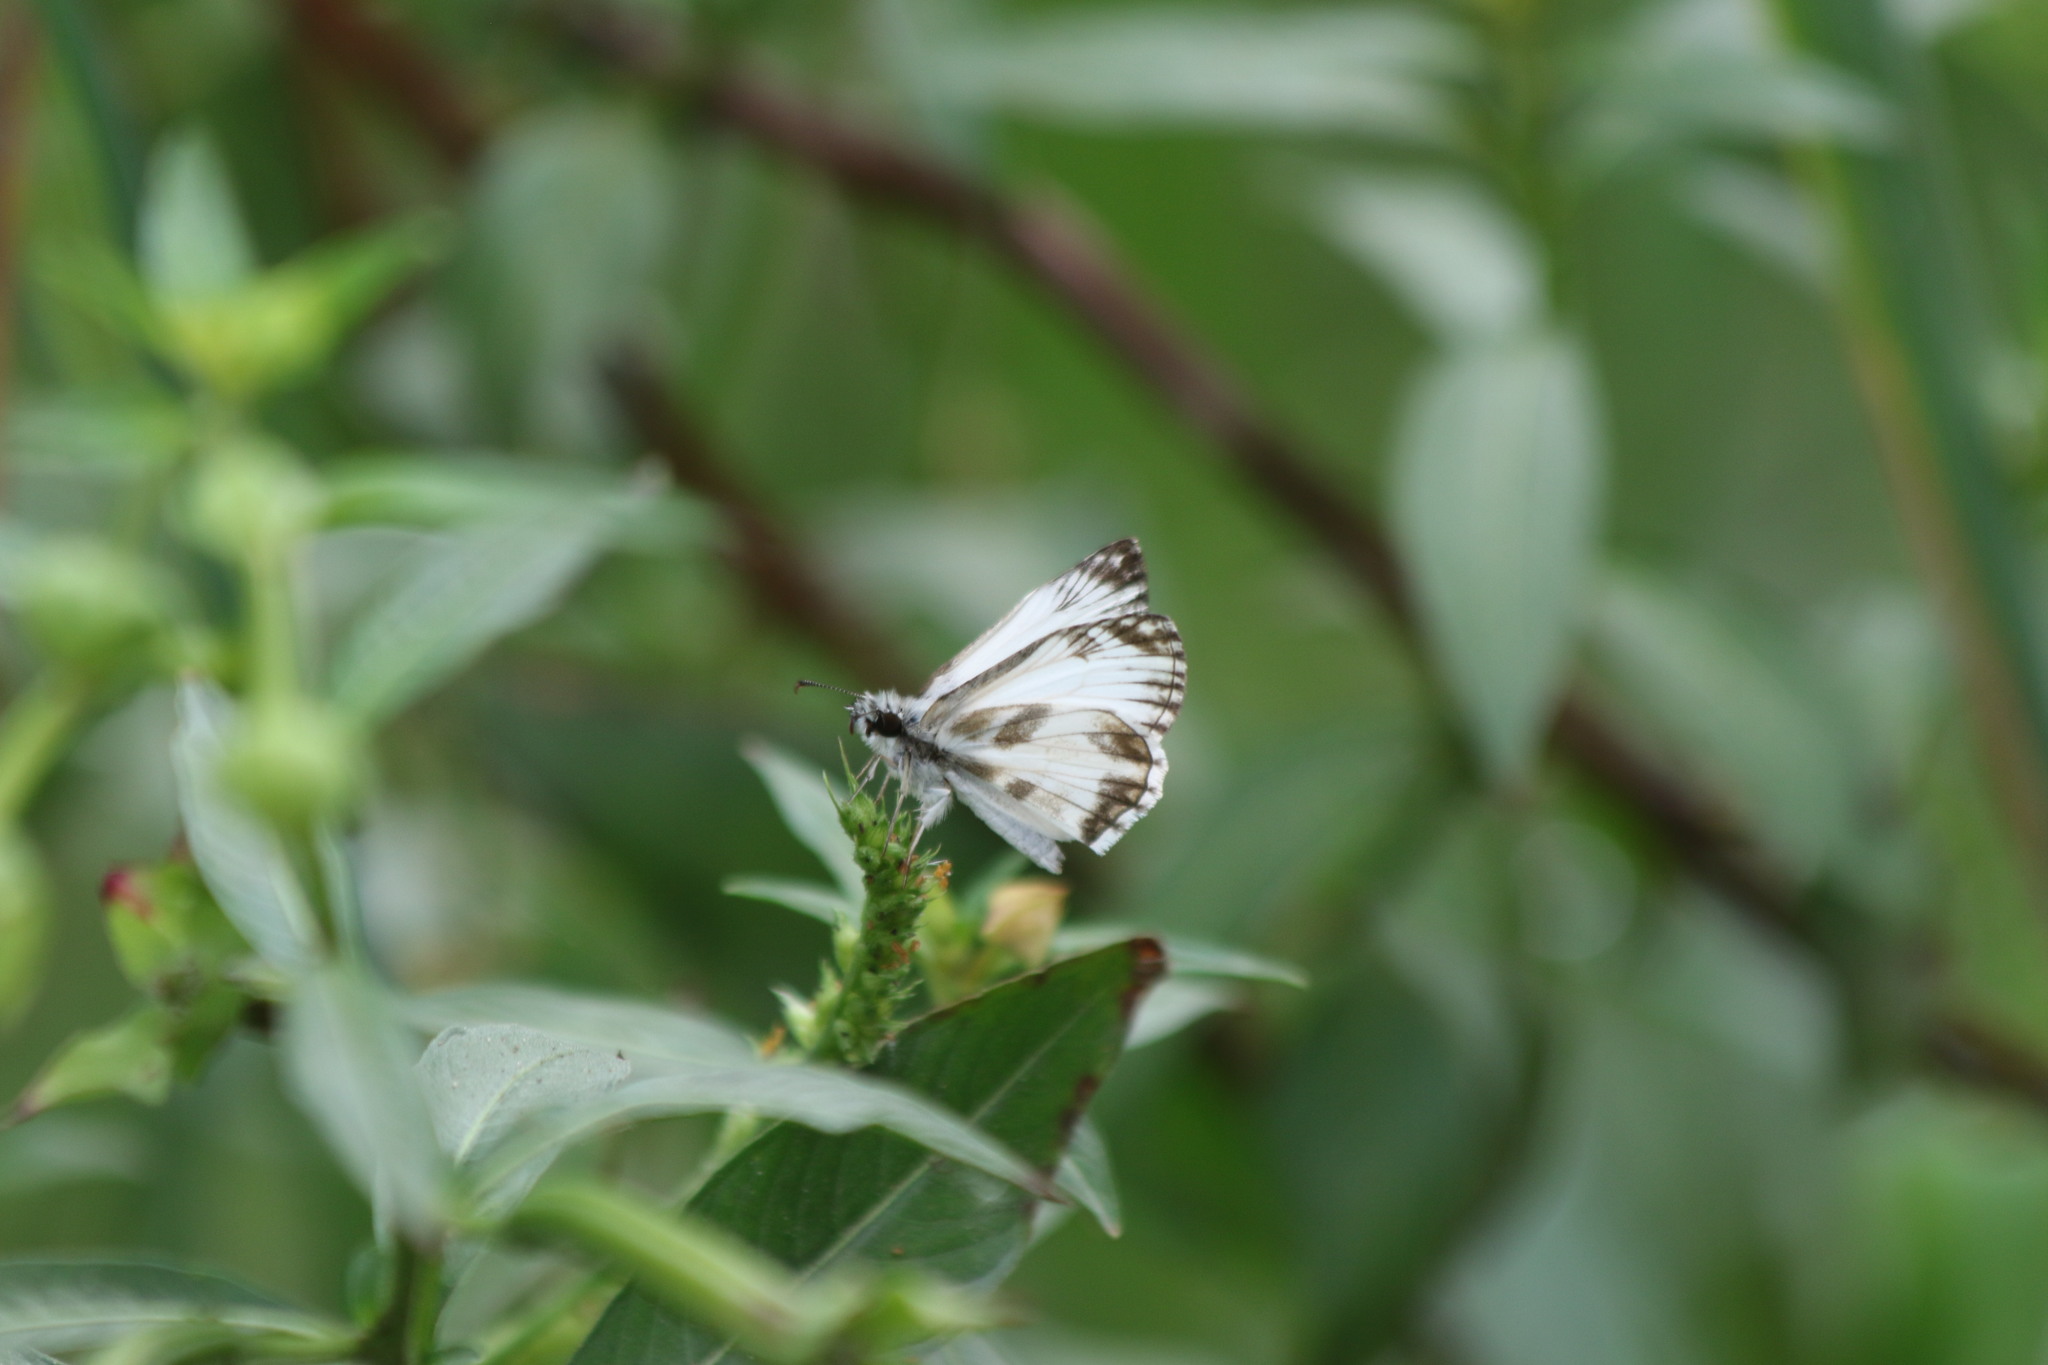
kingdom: Animalia
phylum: Arthropoda
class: Insecta
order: Lepidoptera
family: Hesperiidae
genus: Heliopetes
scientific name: Heliopetes macaira
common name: Turk's-cap white-skipper
